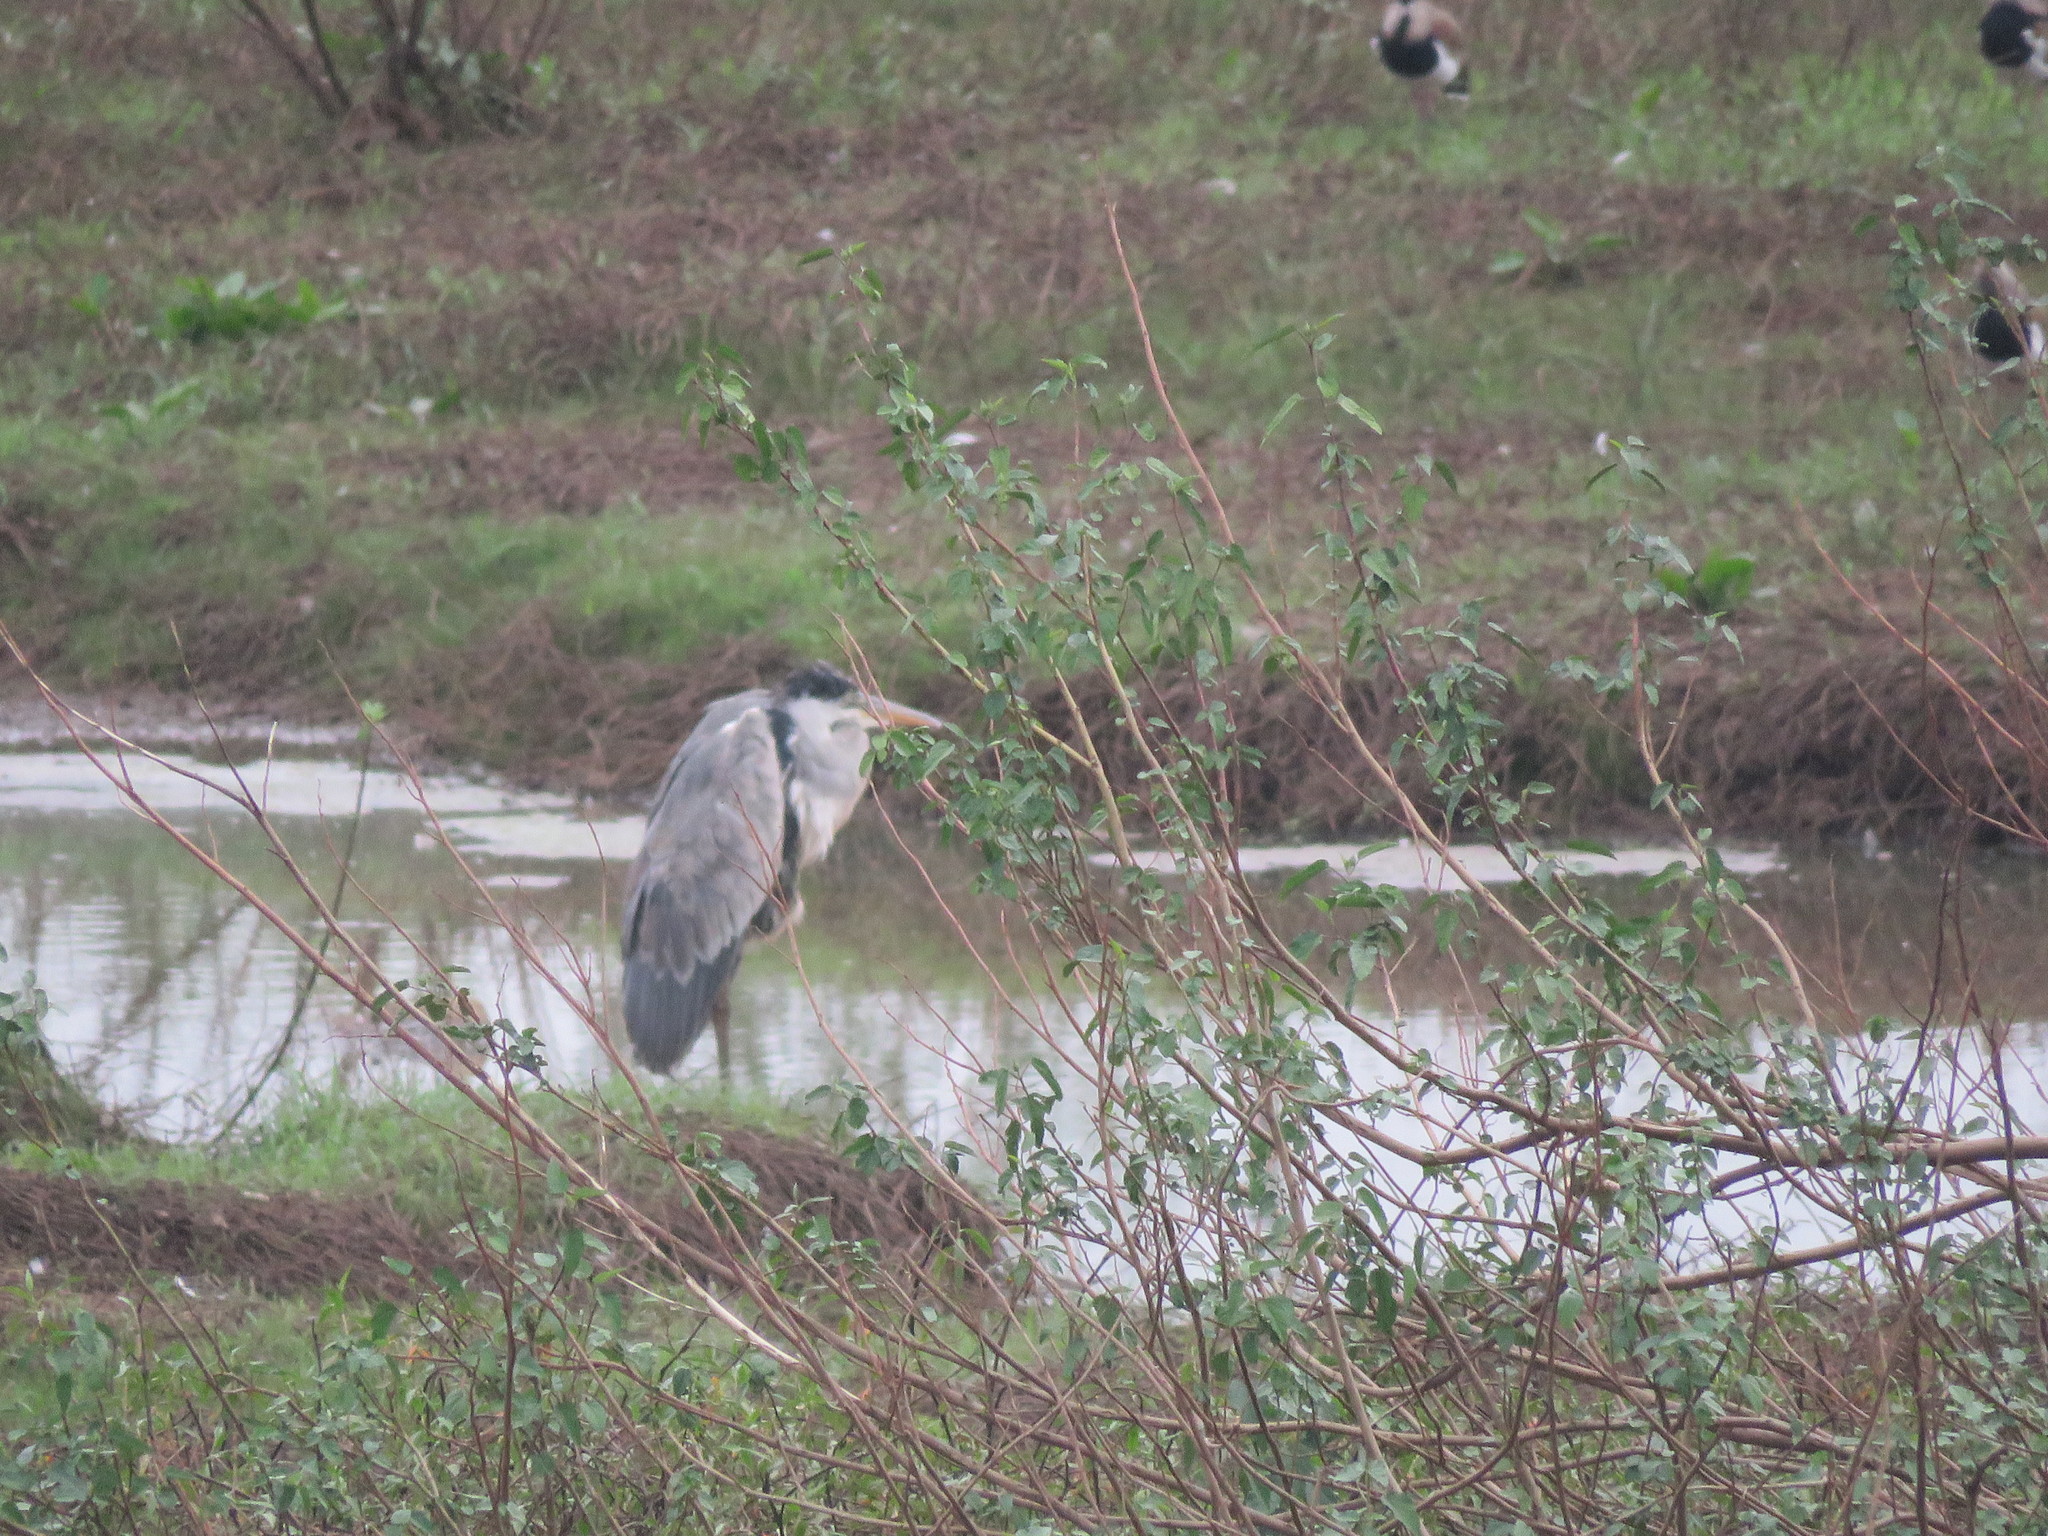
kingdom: Animalia
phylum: Chordata
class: Aves
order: Pelecaniformes
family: Ardeidae
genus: Ardea
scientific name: Ardea cocoi
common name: Cocoi heron
